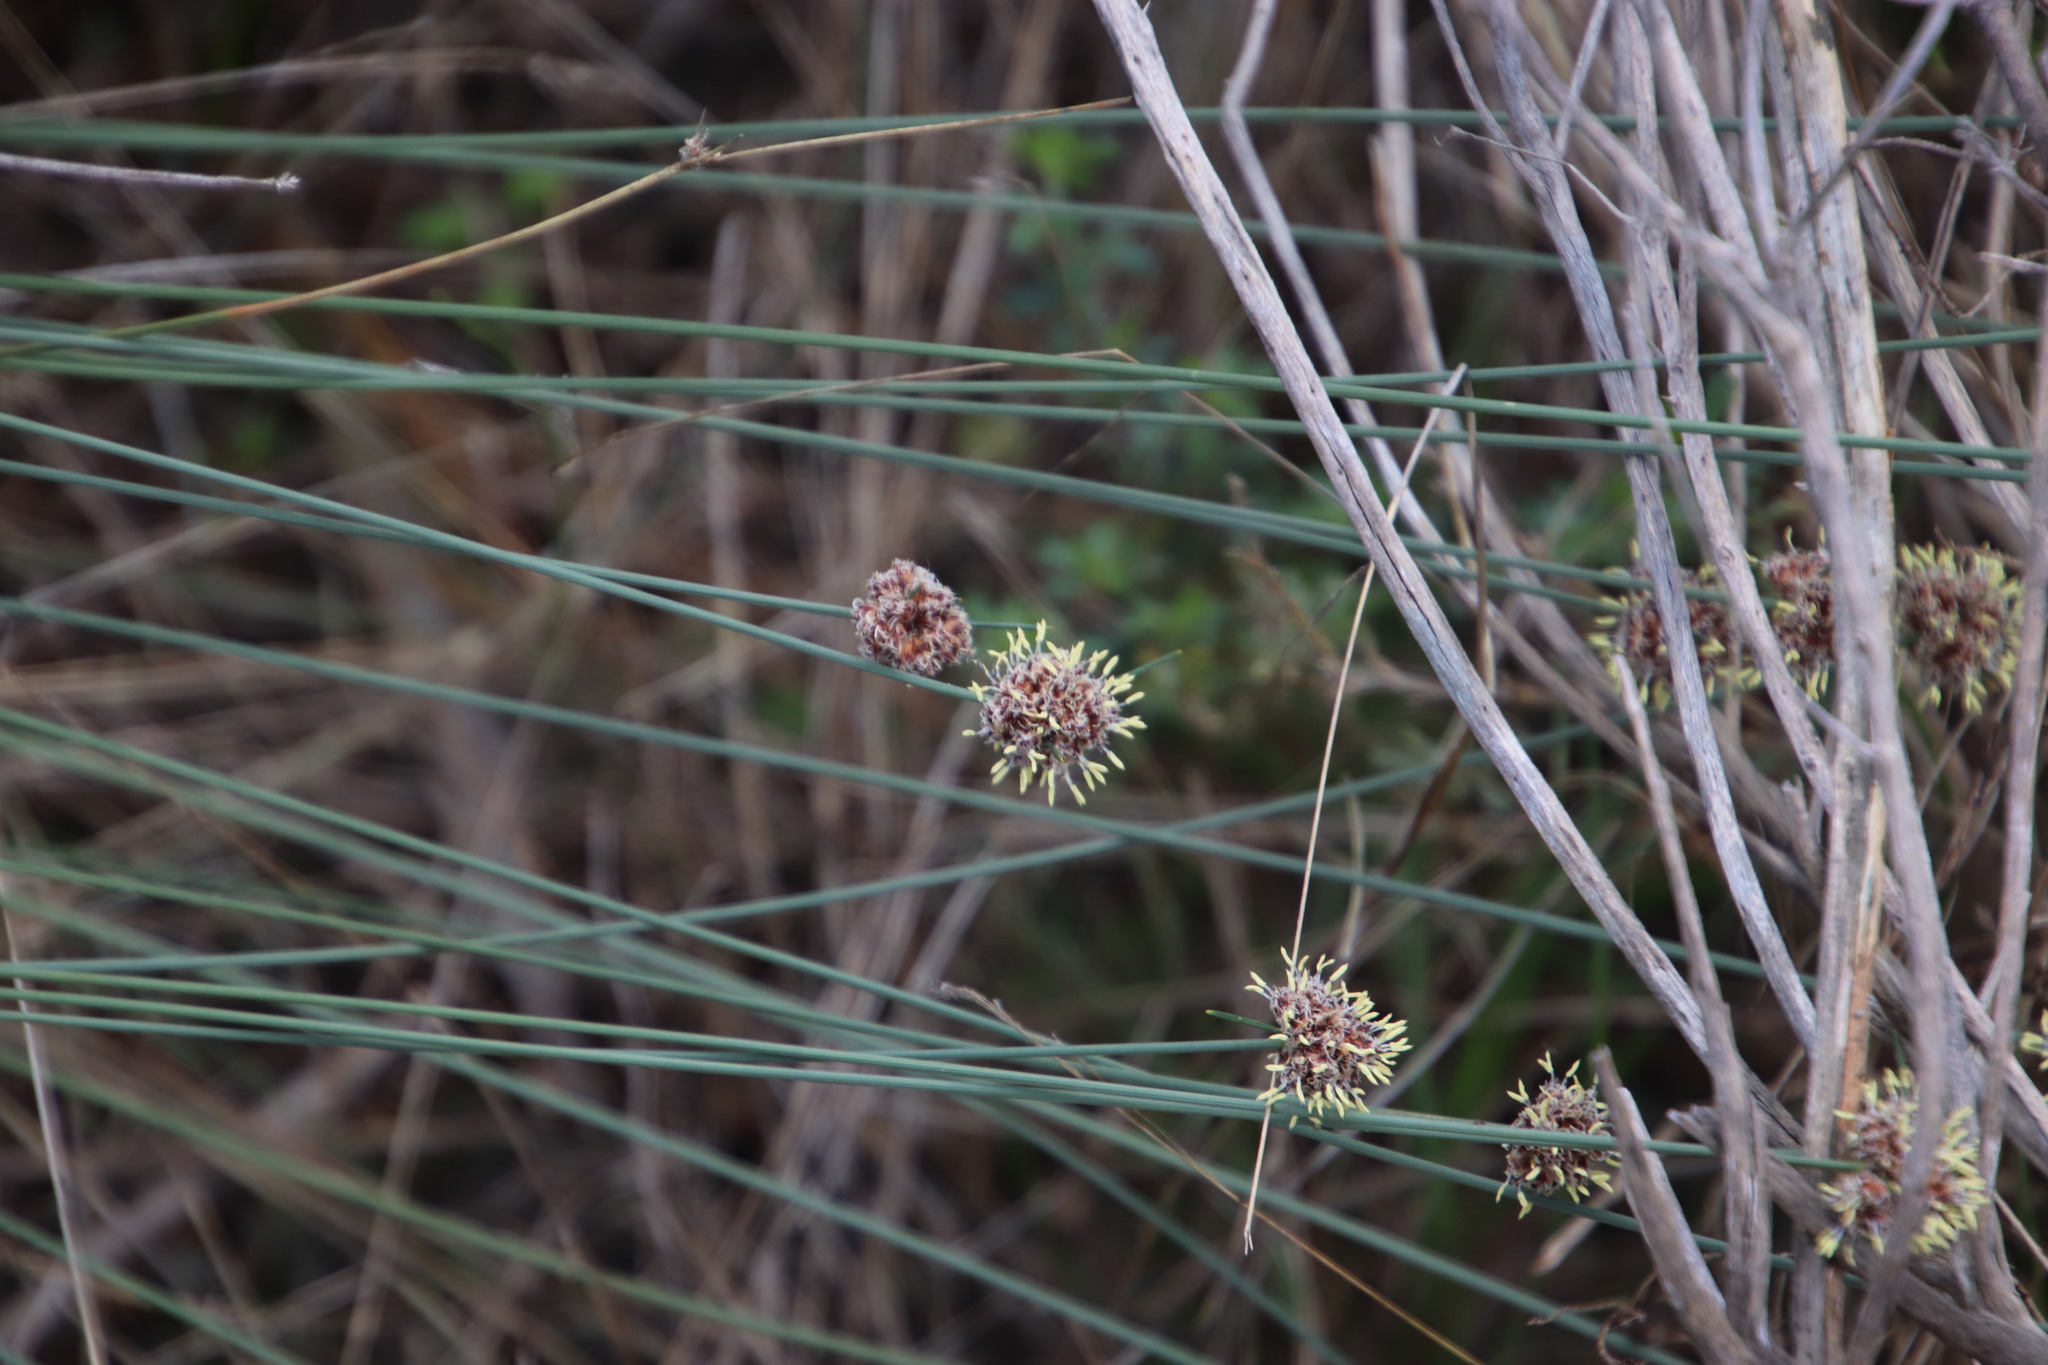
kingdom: Plantae
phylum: Tracheophyta
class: Liliopsida
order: Poales
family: Cyperaceae
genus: Ficinia
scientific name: Ficinia paradoxa
